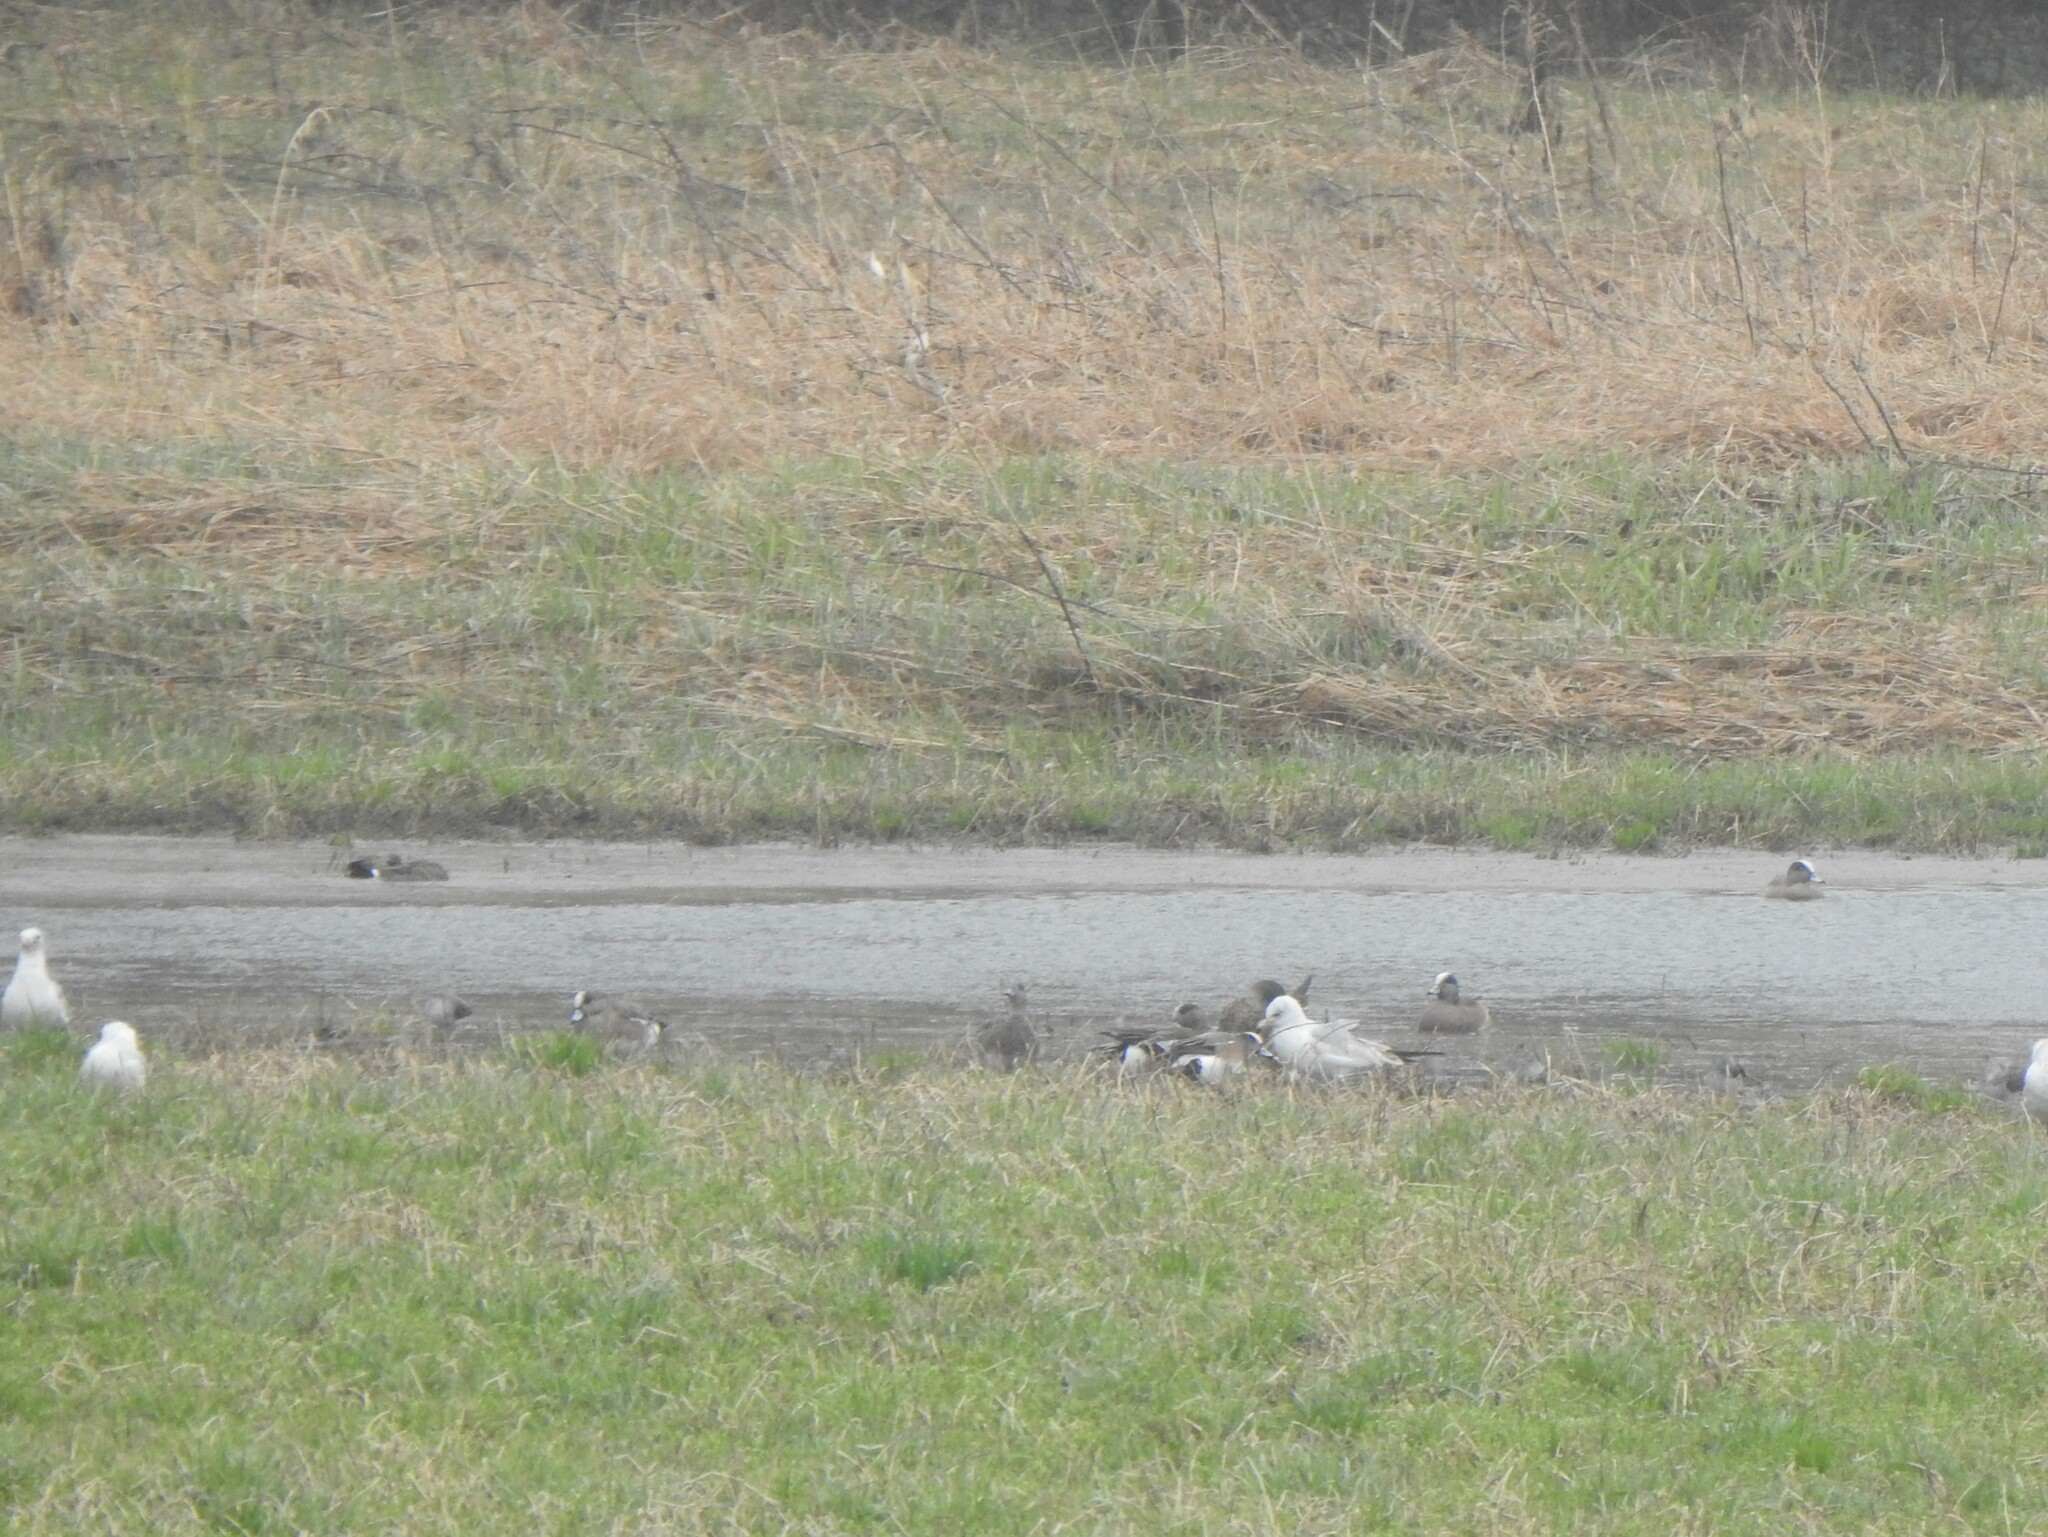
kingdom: Animalia
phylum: Chordata
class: Aves
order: Anseriformes
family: Anatidae
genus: Mareca
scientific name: Mareca americana
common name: American wigeon
